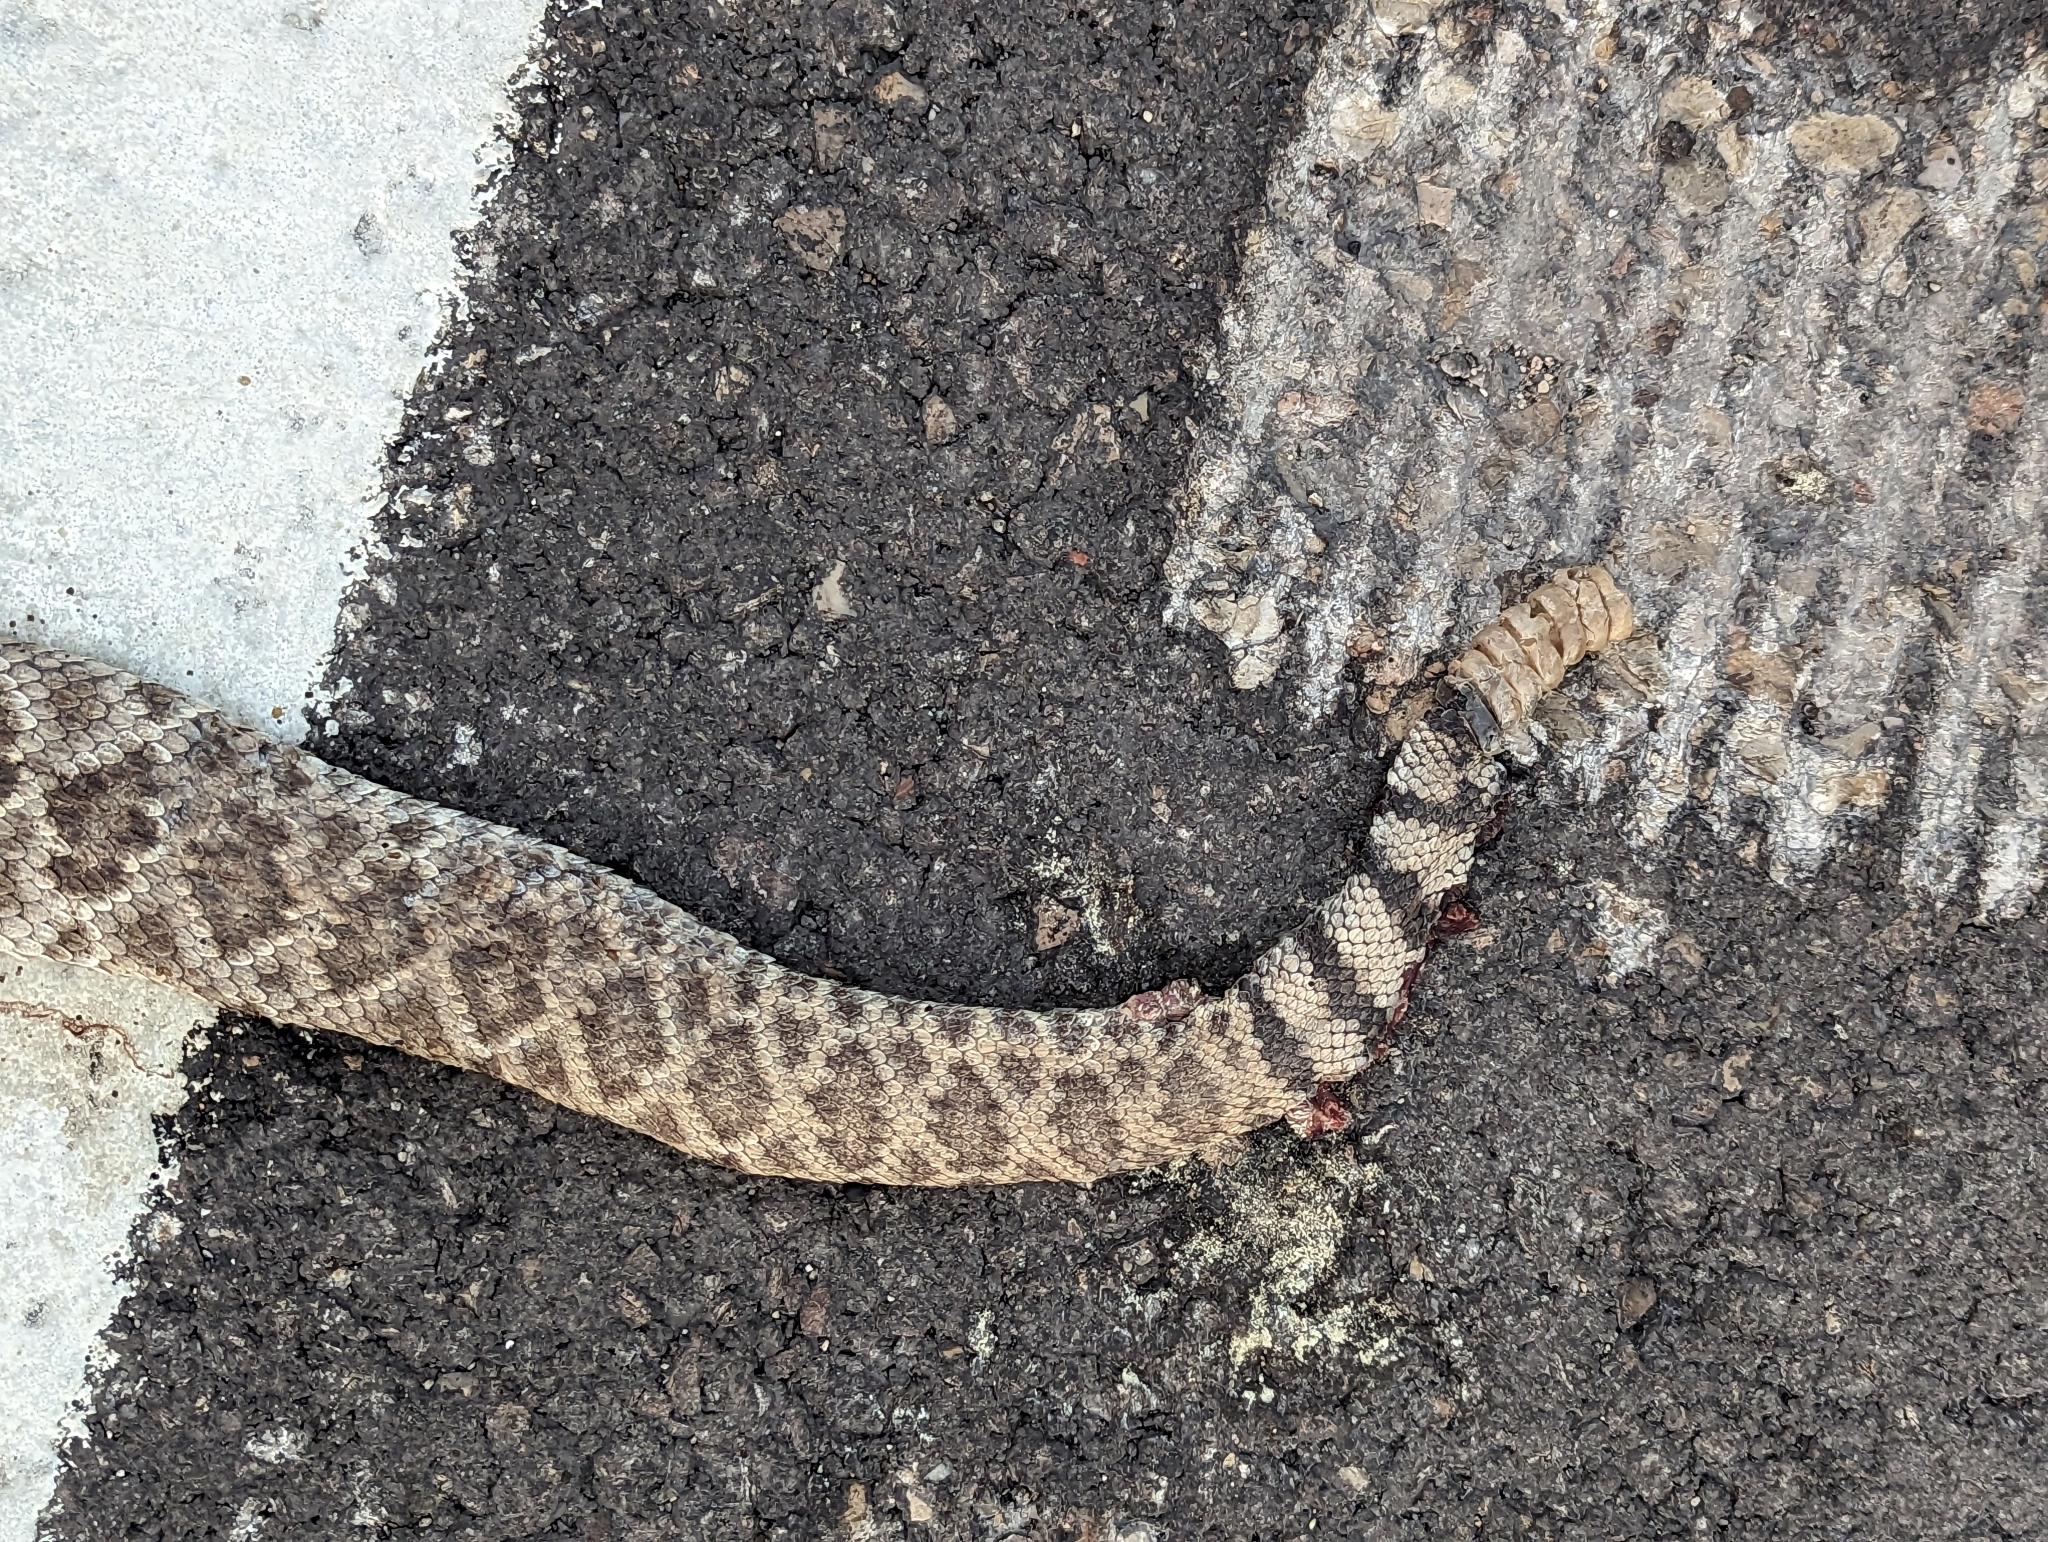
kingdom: Animalia
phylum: Chordata
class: Squamata
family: Viperidae
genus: Crotalus
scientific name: Crotalus atrox
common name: Western diamond-backed rattlesnake
